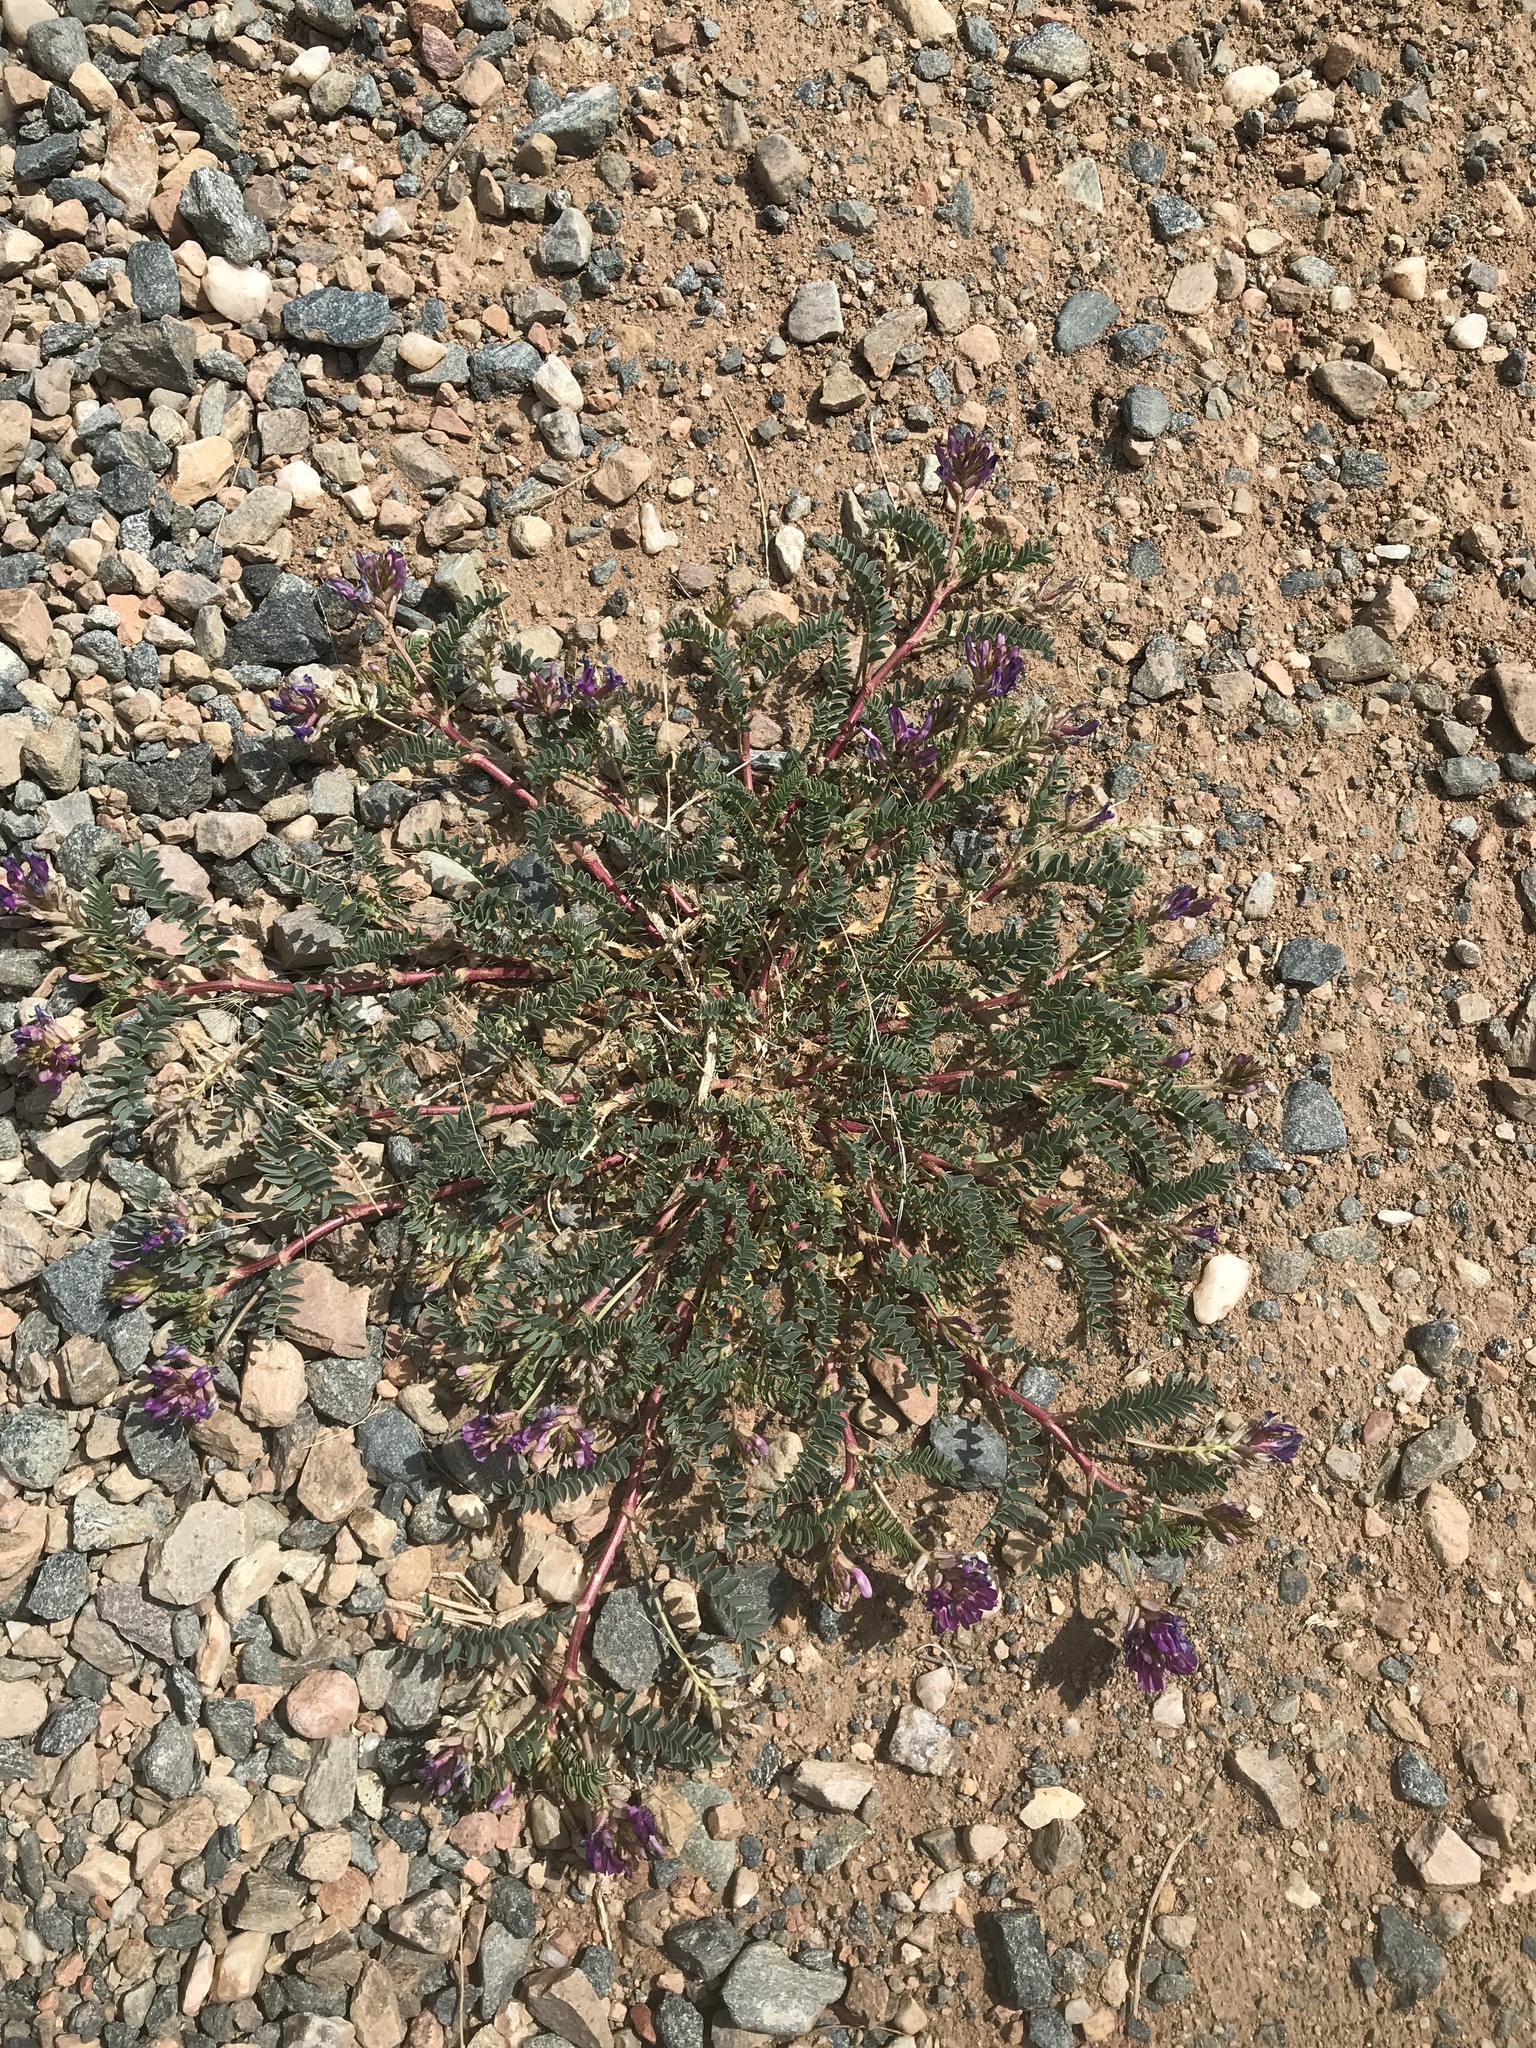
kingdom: Plantae
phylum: Tracheophyta
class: Magnoliopsida
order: Fabales
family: Fabaceae
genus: Astragalus
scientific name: Astragalus lentiginosus
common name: Freckled milkvetch
